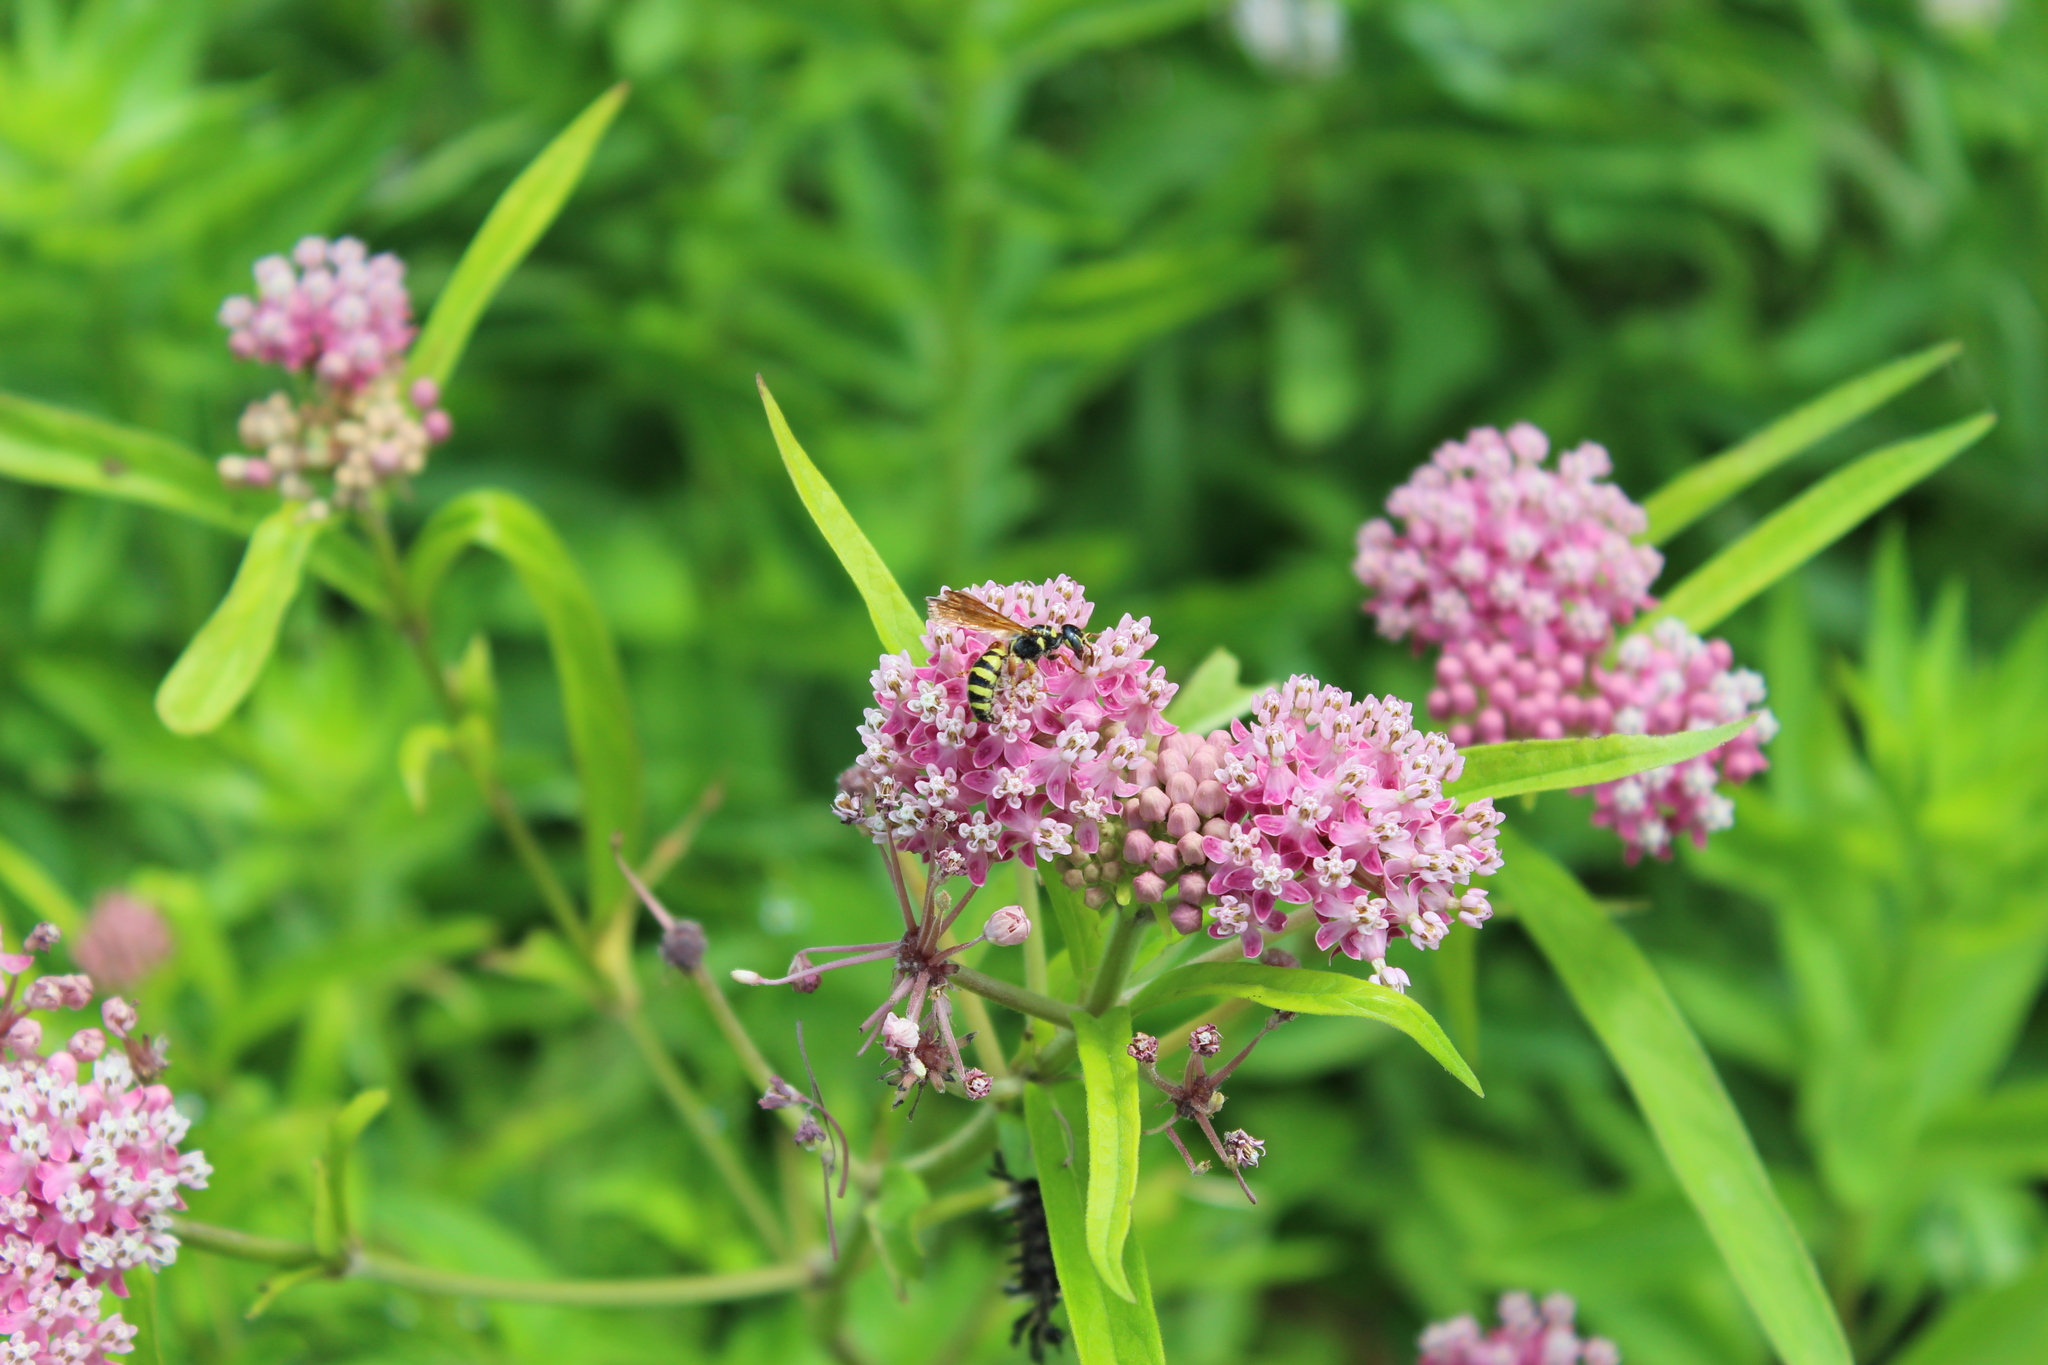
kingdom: Plantae
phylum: Tracheophyta
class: Magnoliopsida
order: Gentianales
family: Apocynaceae
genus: Asclepias
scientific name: Asclepias incarnata
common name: Swamp milkweed
